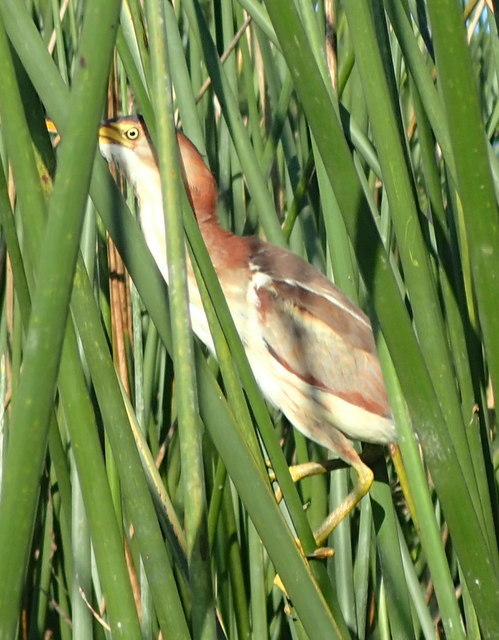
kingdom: Animalia
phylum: Chordata
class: Aves
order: Pelecaniformes
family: Ardeidae
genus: Ixobrychus
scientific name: Ixobrychus exilis
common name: Least bittern
